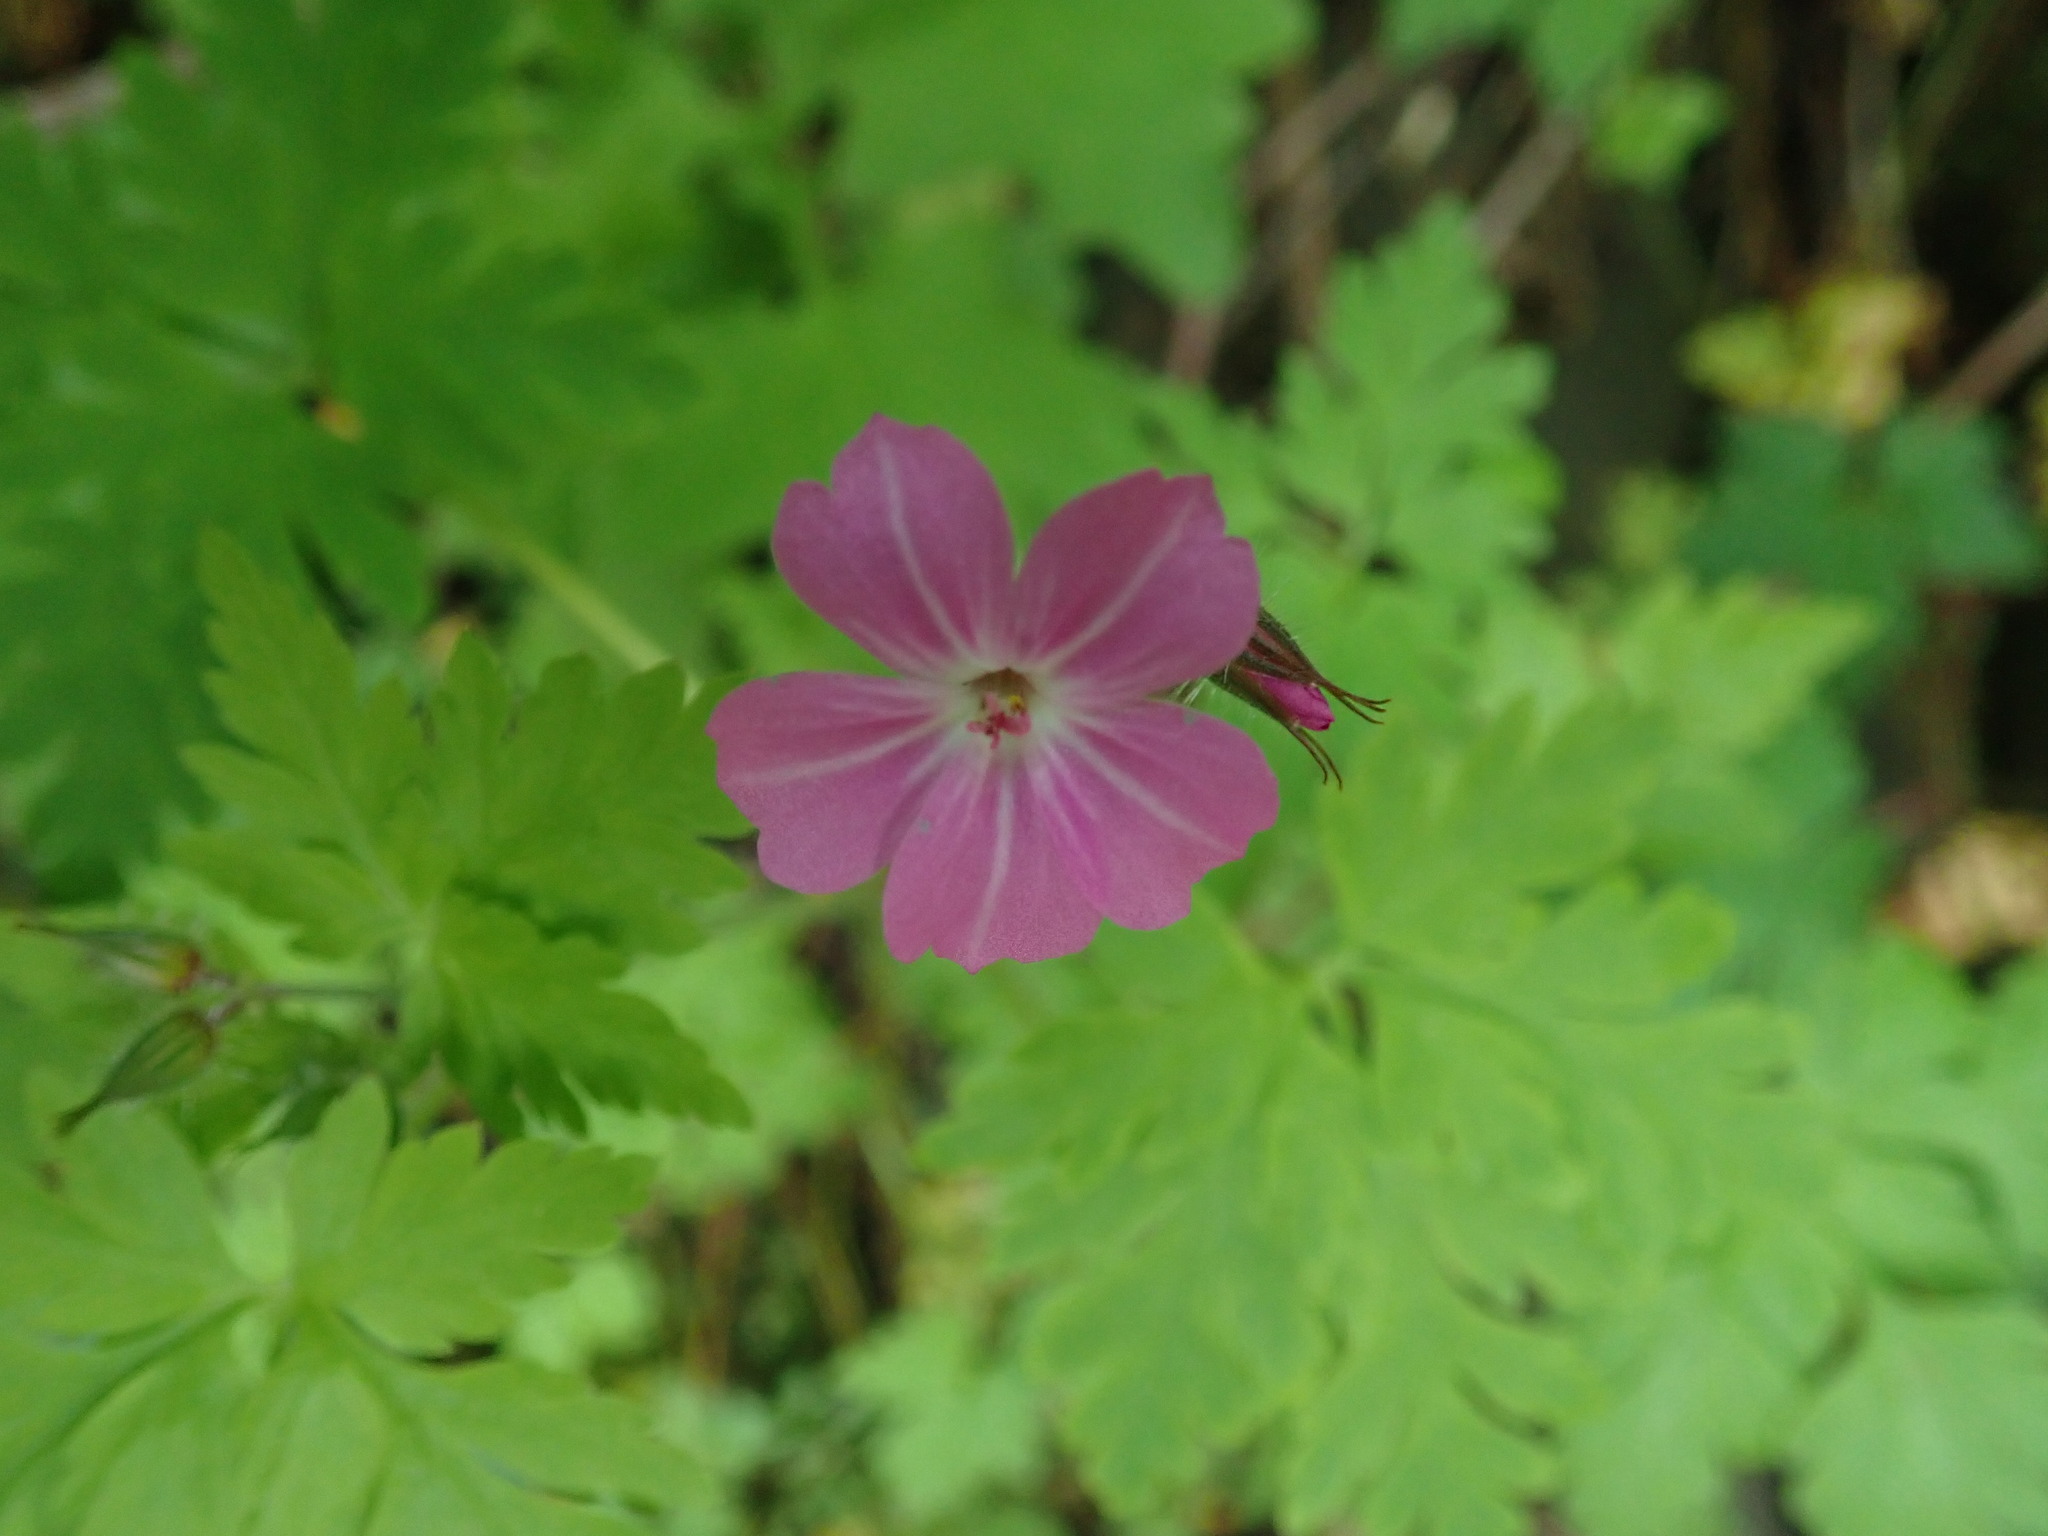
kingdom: Plantae
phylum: Tracheophyta
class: Magnoliopsida
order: Geraniales
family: Geraniaceae
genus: Geranium
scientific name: Geranium robertianum
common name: Herb-robert
